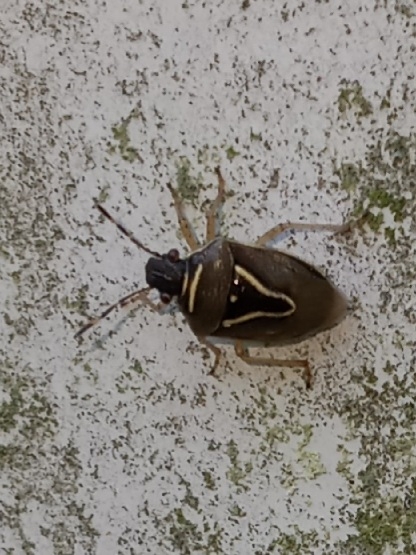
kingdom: Animalia
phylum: Arthropoda
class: Insecta
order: Hemiptera
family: Pentatomidae
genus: Mormidea
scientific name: Mormidea lugens
